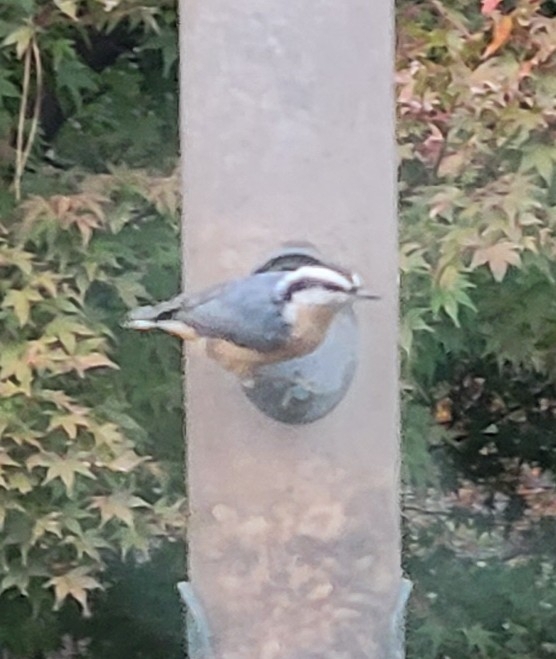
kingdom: Animalia
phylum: Chordata
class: Aves
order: Passeriformes
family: Sittidae
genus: Sitta
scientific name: Sitta canadensis
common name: Red-breasted nuthatch
